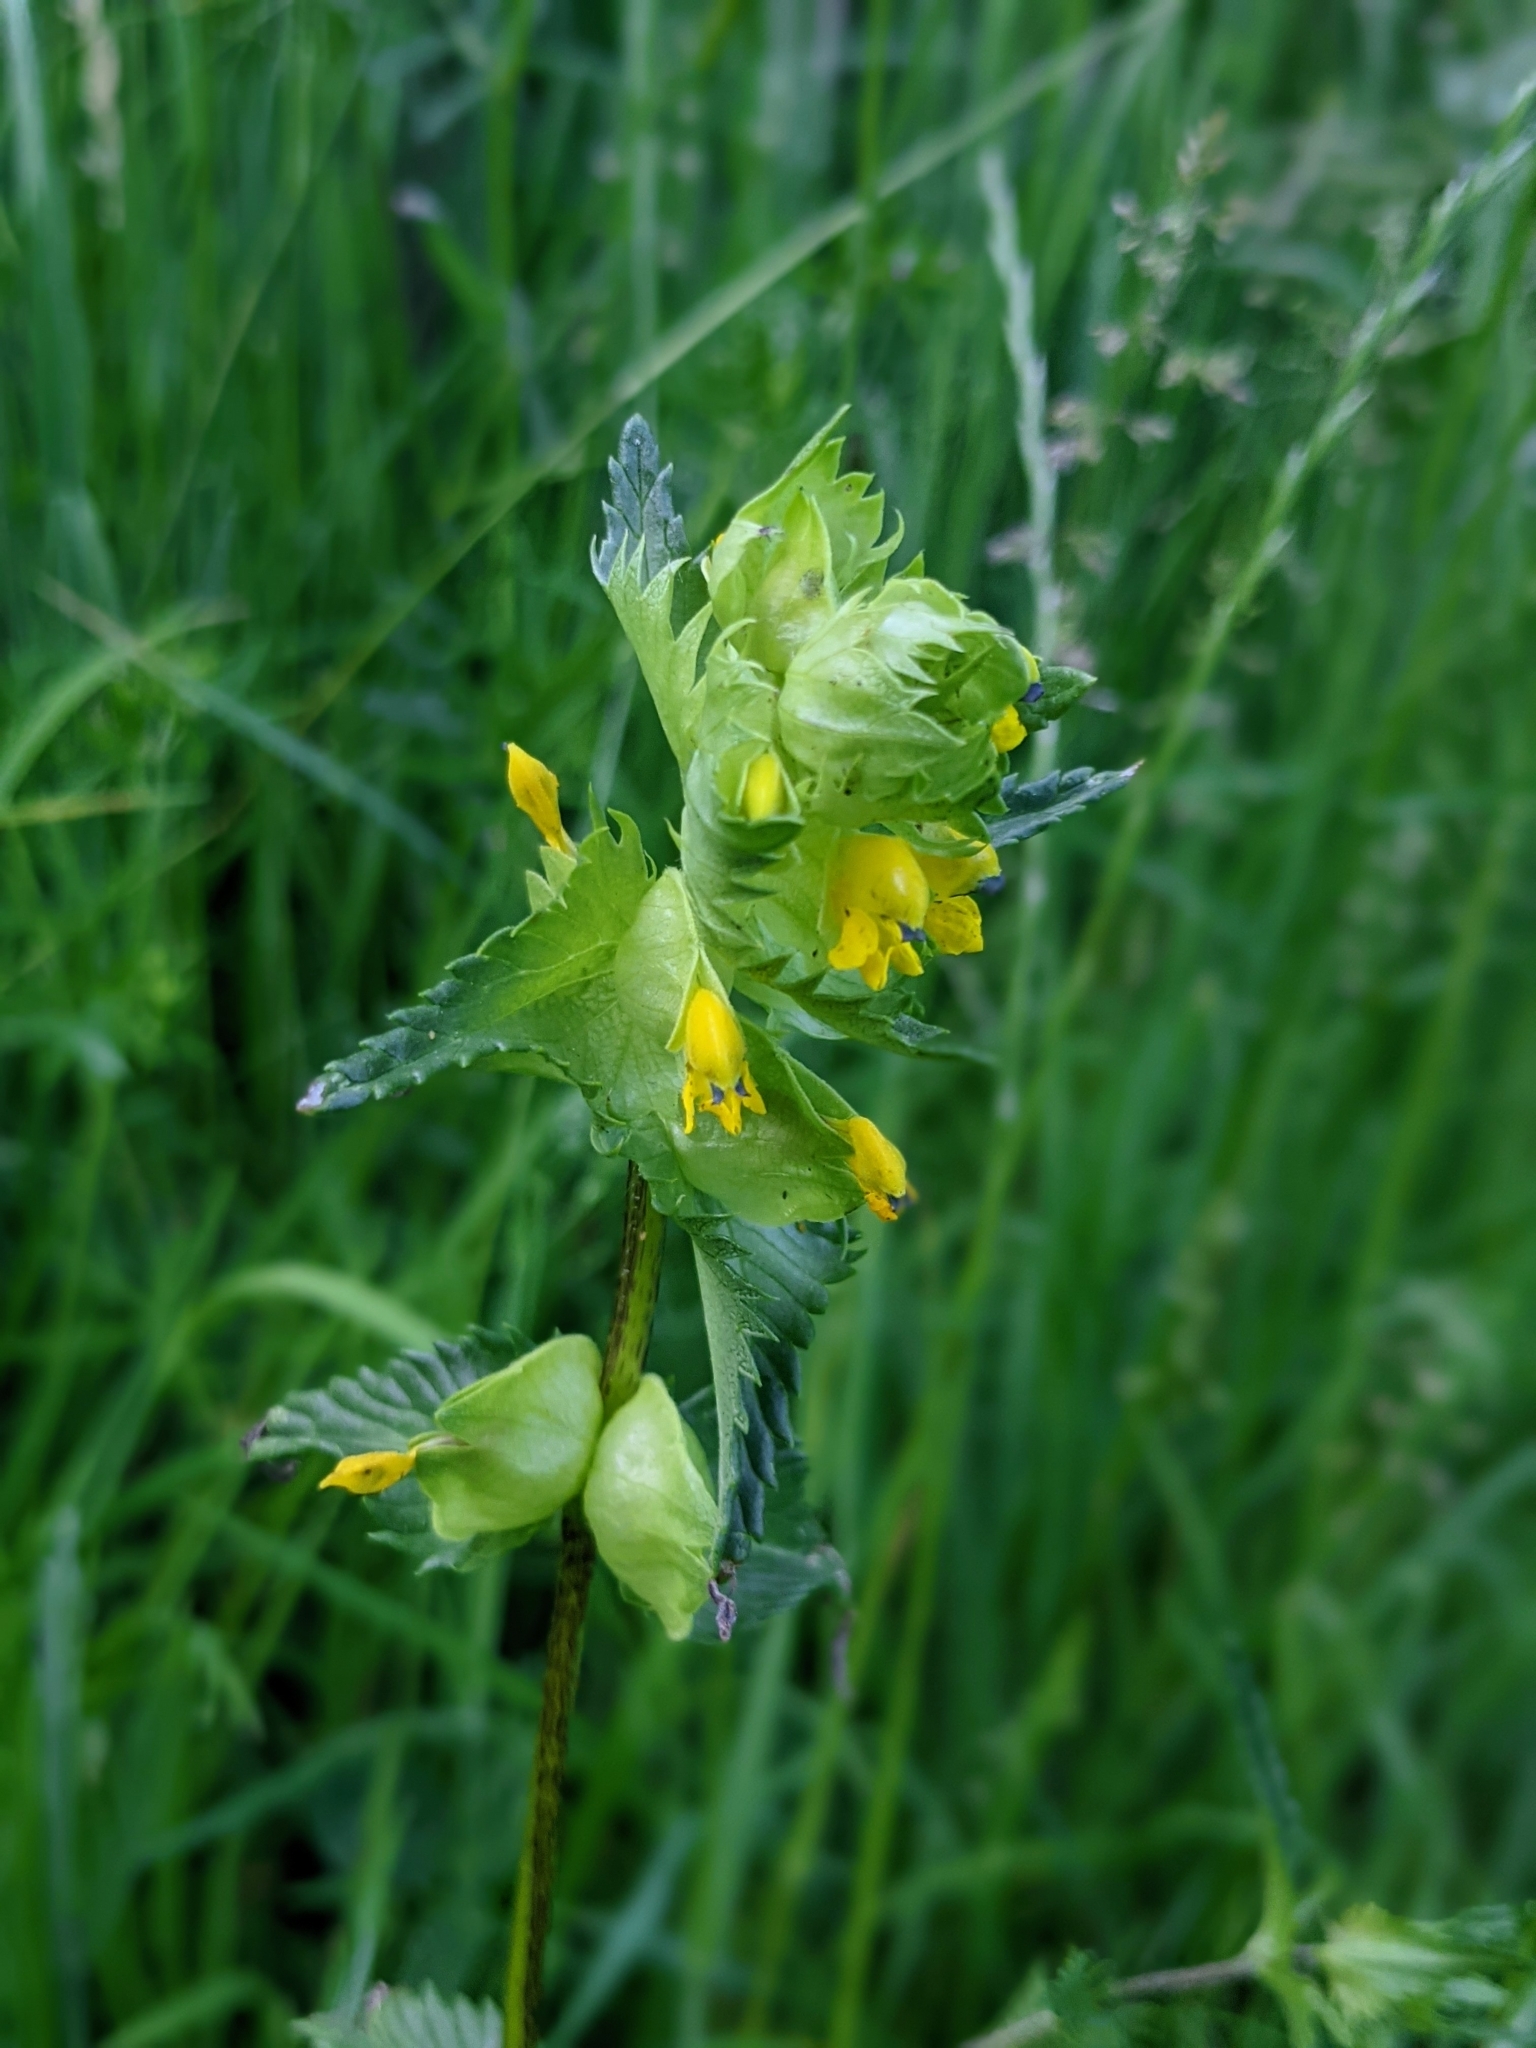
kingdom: Plantae
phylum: Tracheophyta
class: Magnoliopsida
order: Lamiales
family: Orobanchaceae
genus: Rhinanthus
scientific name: Rhinanthus minor
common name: Yellow-rattle
